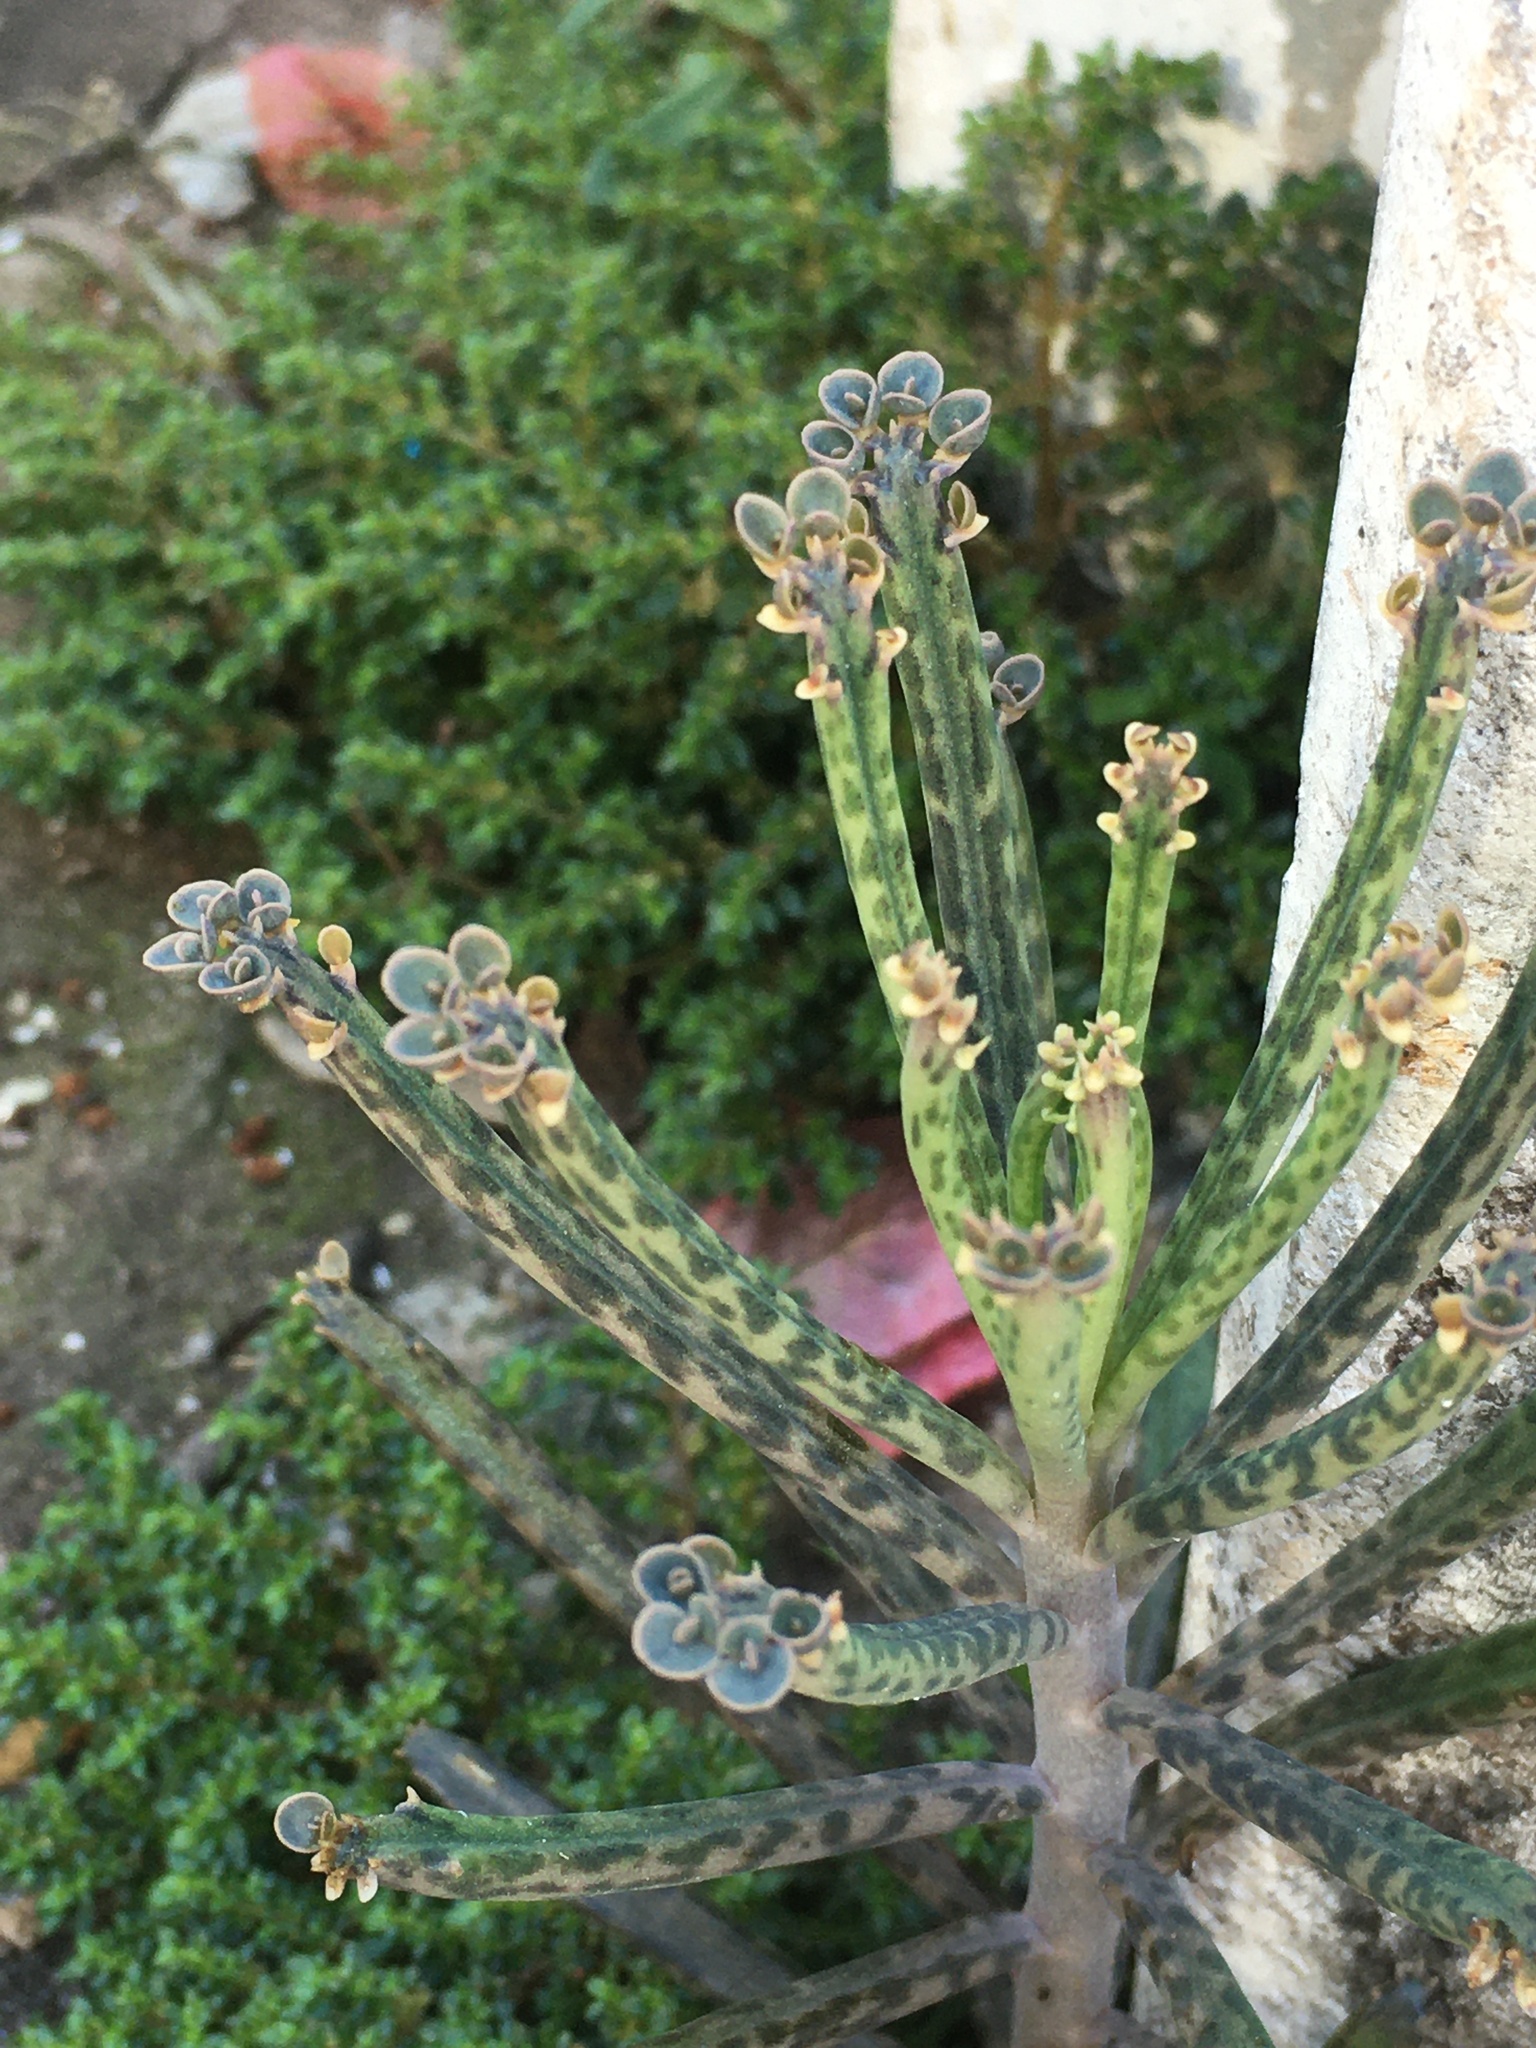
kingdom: Plantae
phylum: Tracheophyta
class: Magnoliopsida
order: Saxifragales
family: Crassulaceae
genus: Kalanchoe
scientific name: Kalanchoe delagoensis
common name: Chandelier plant
